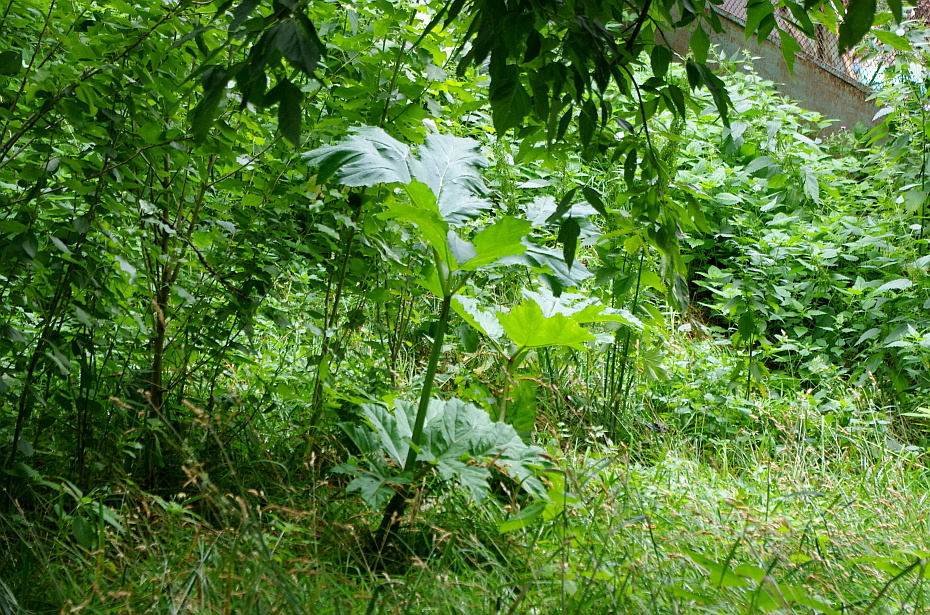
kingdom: Plantae
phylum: Tracheophyta
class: Magnoliopsida
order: Apiales
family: Apiaceae
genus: Heracleum
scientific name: Heracleum sosnowskyi
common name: Sosnowsky's hogweed
